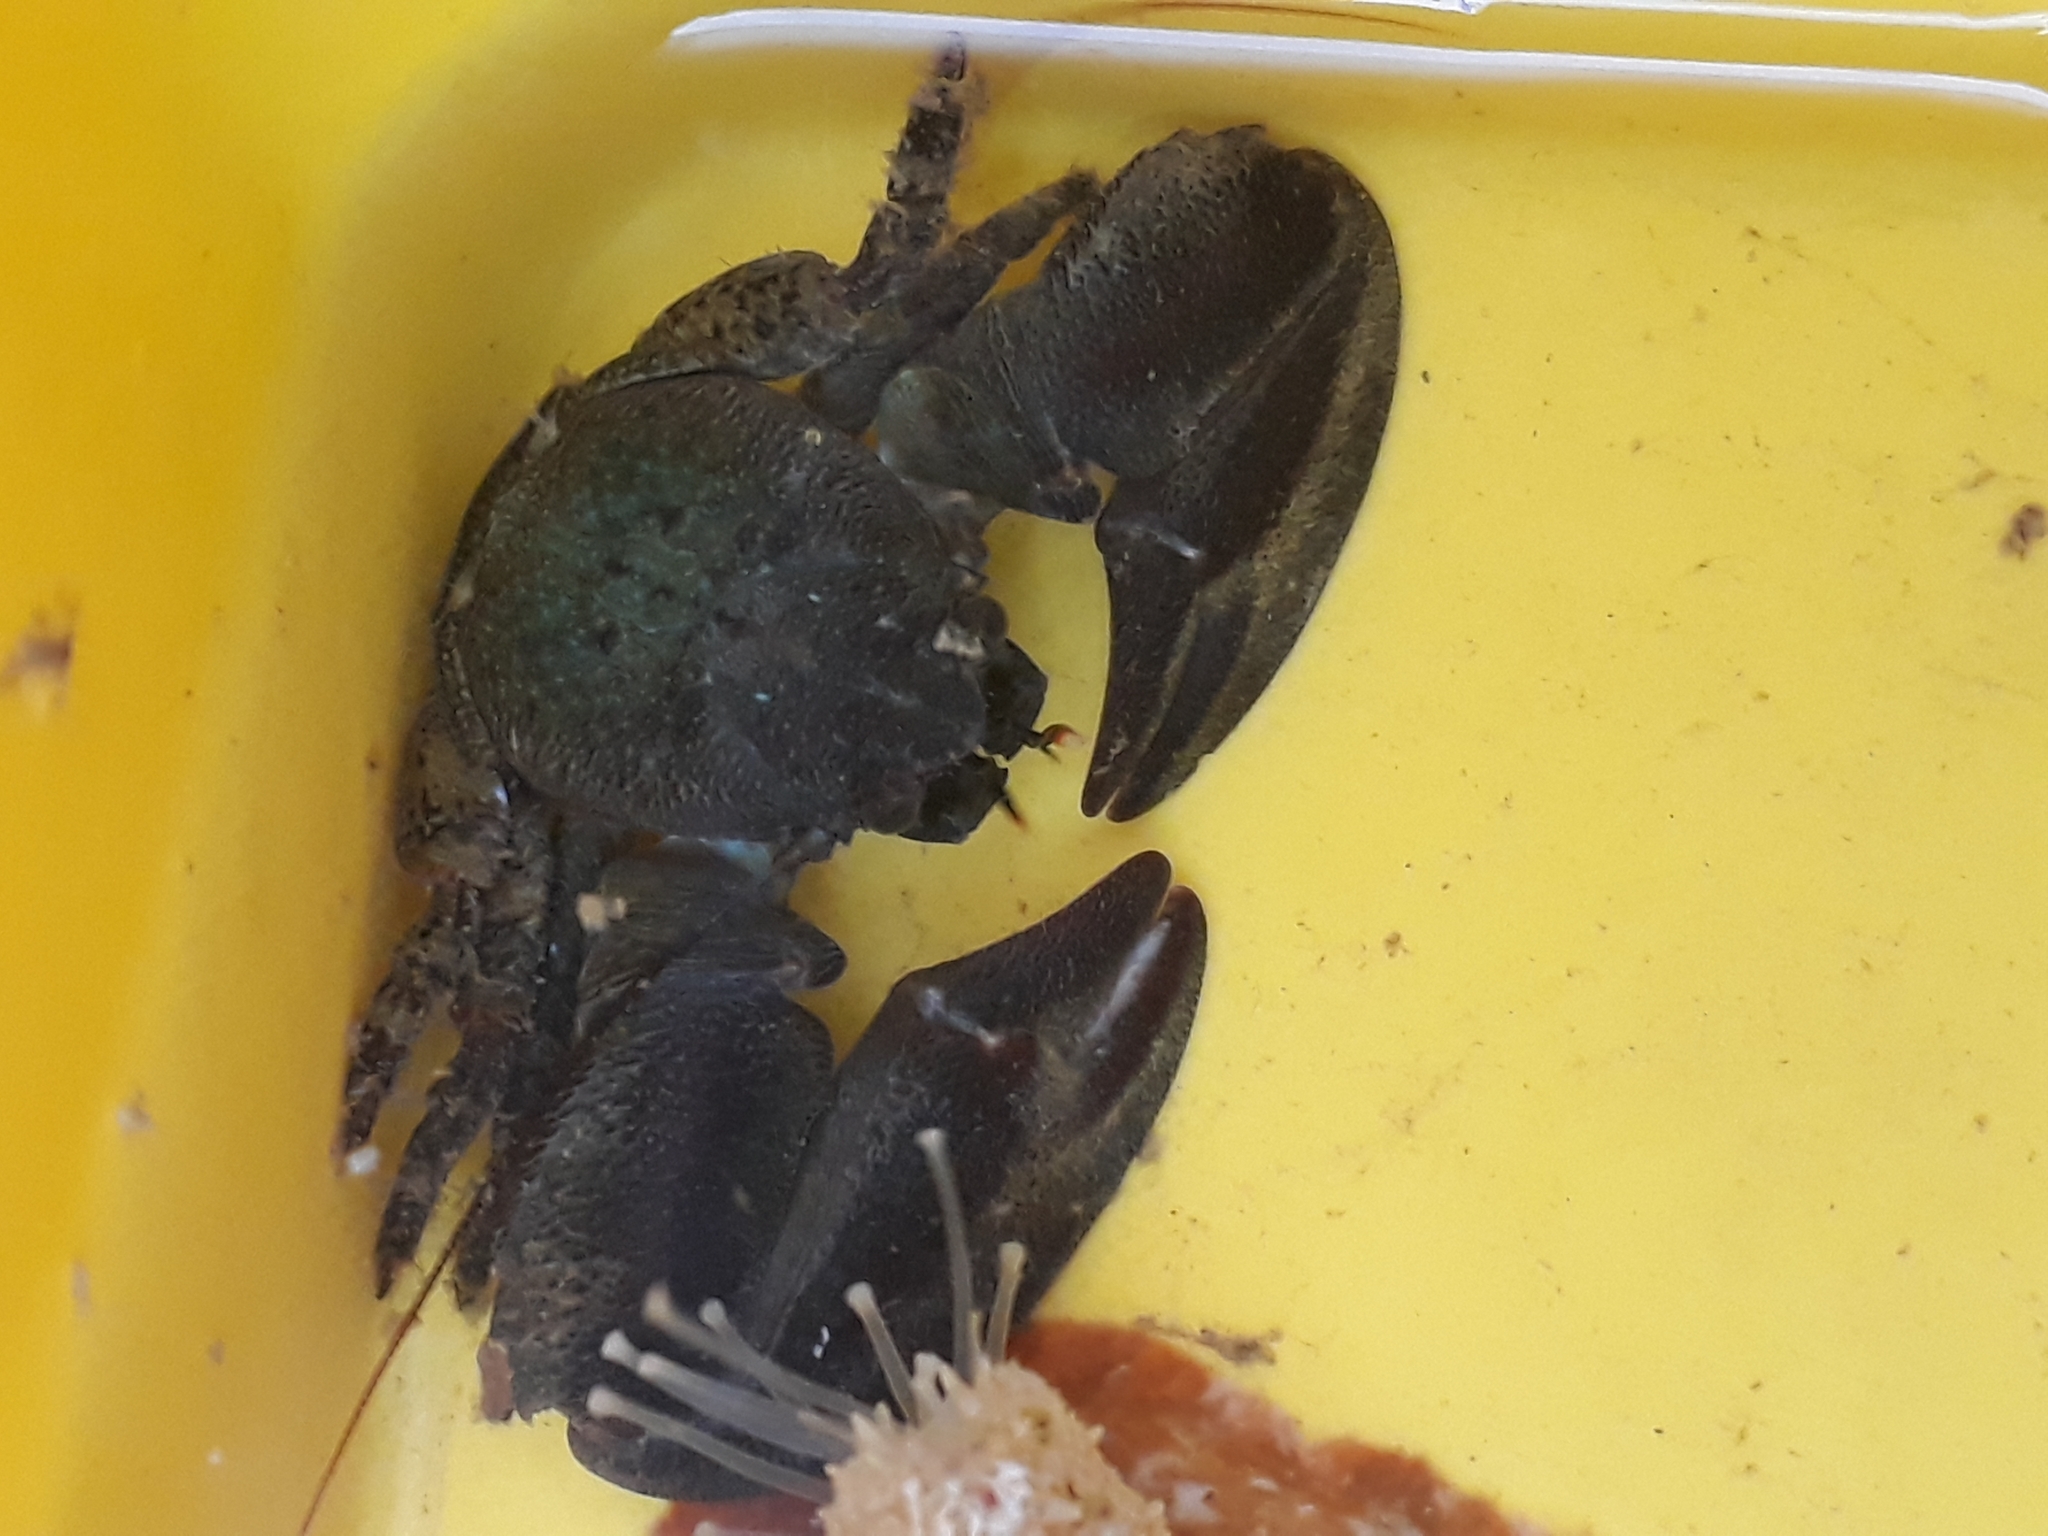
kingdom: Animalia
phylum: Arthropoda
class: Malacostraca
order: Decapoda
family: Porcellanidae
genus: Petrolisthes
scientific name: Petrolisthes elongatus
